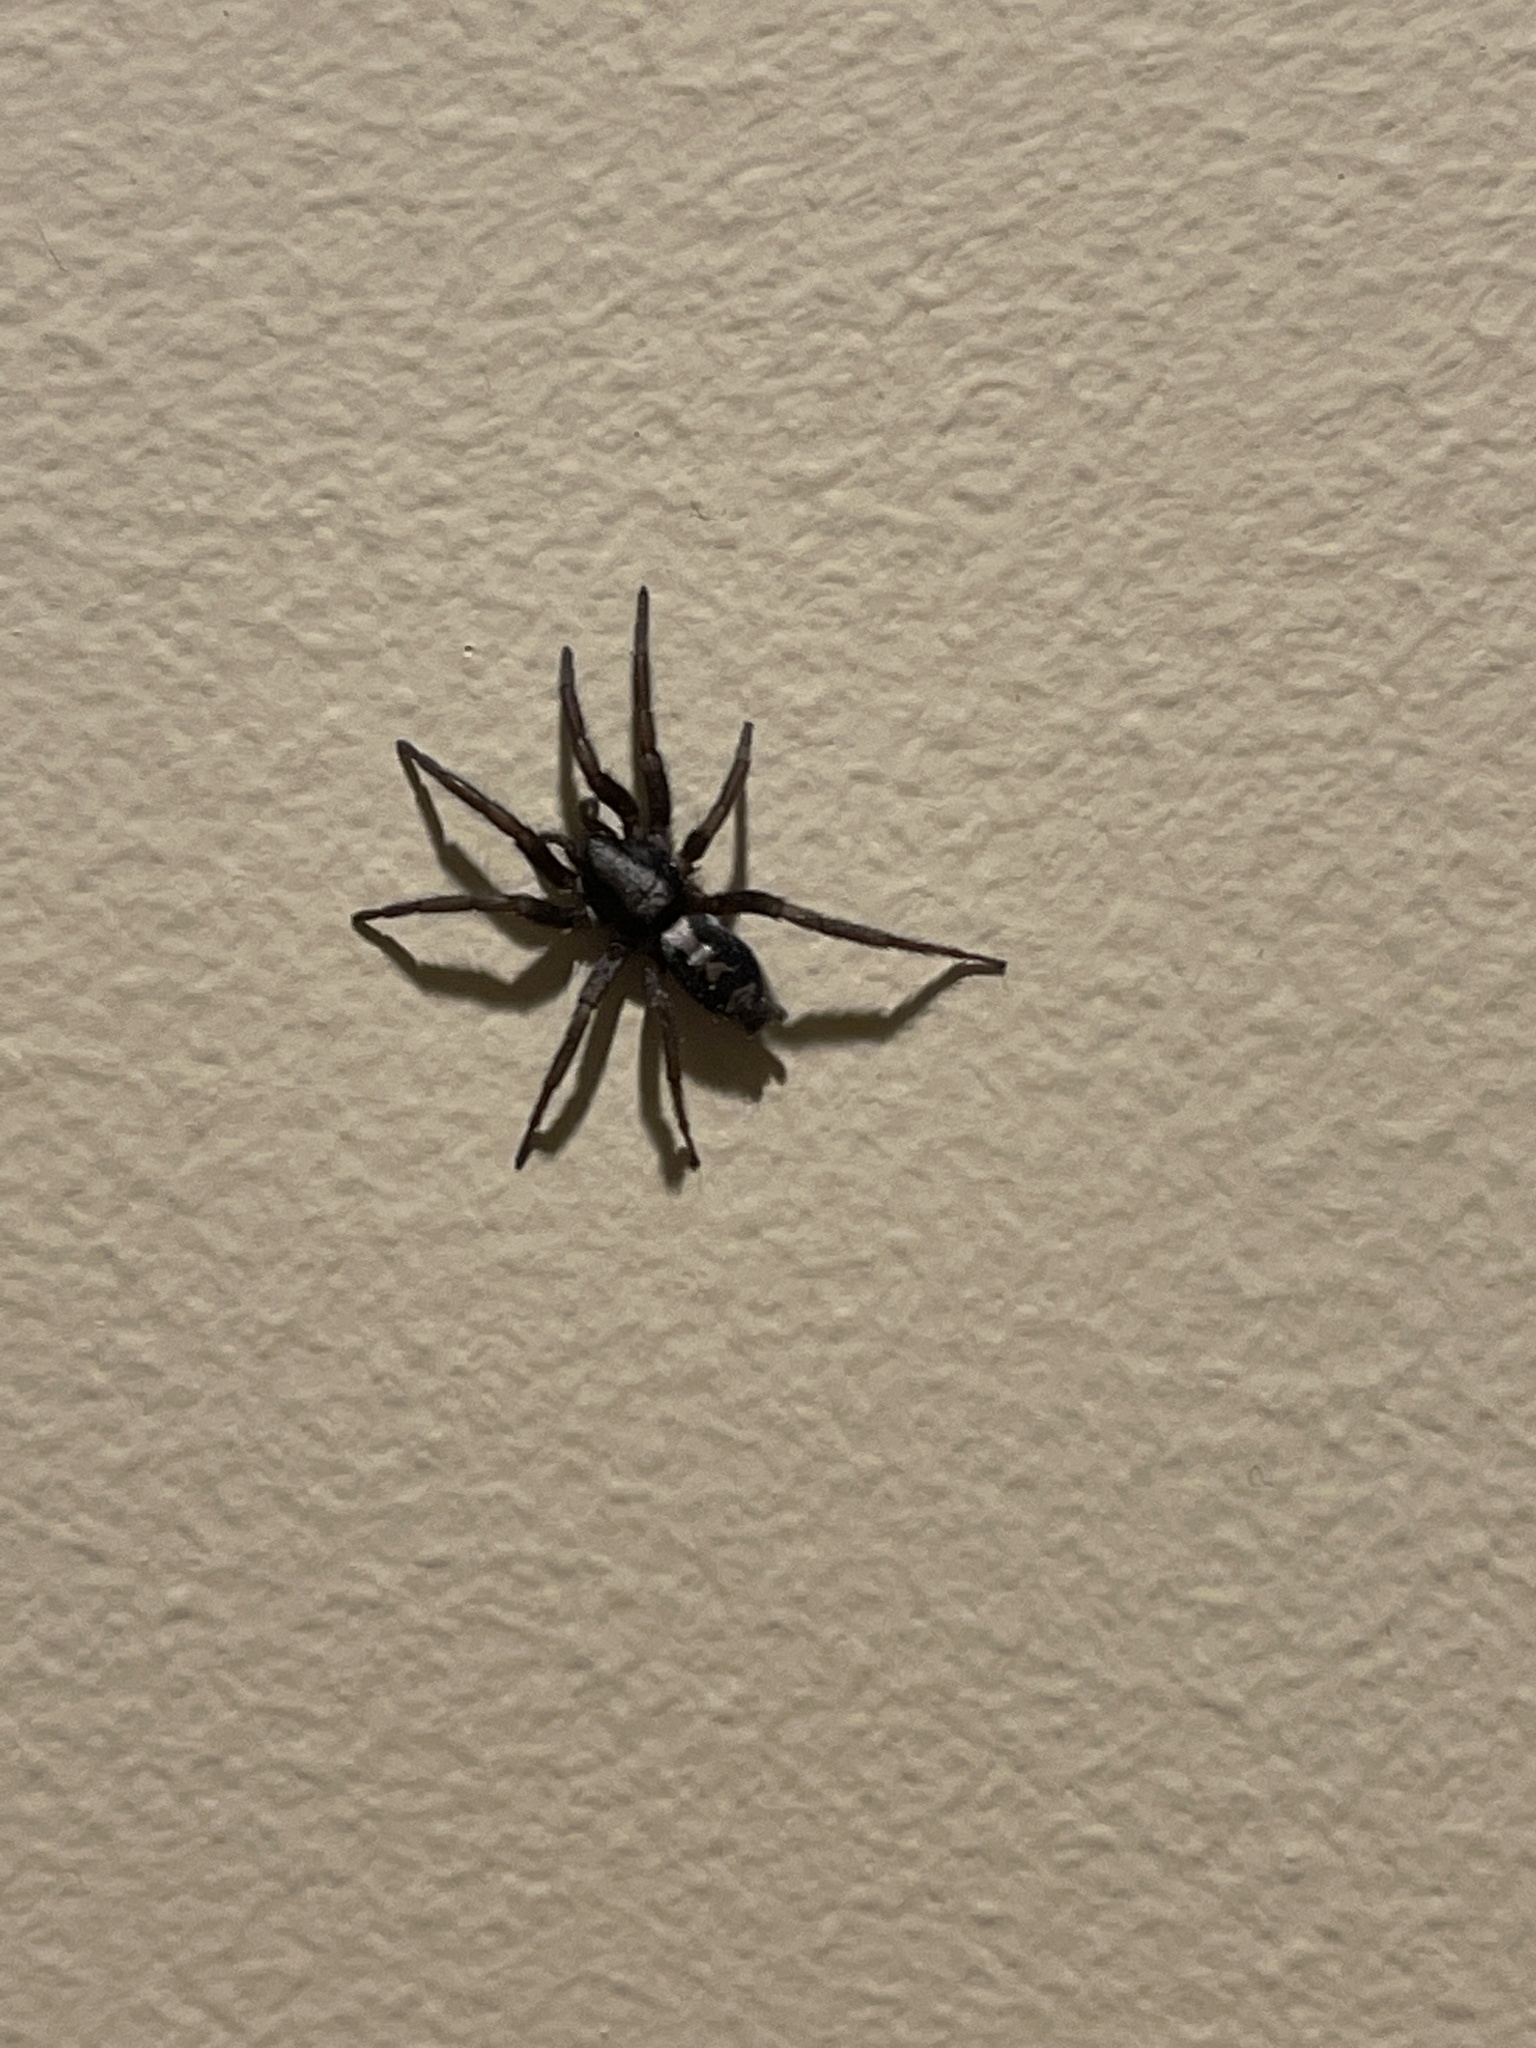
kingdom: Animalia
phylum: Arthropoda
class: Arachnida
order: Araneae
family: Gnaphosidae
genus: Herpyllus
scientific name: Herpyllus ecclesiasticus
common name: Eastern parson spider
